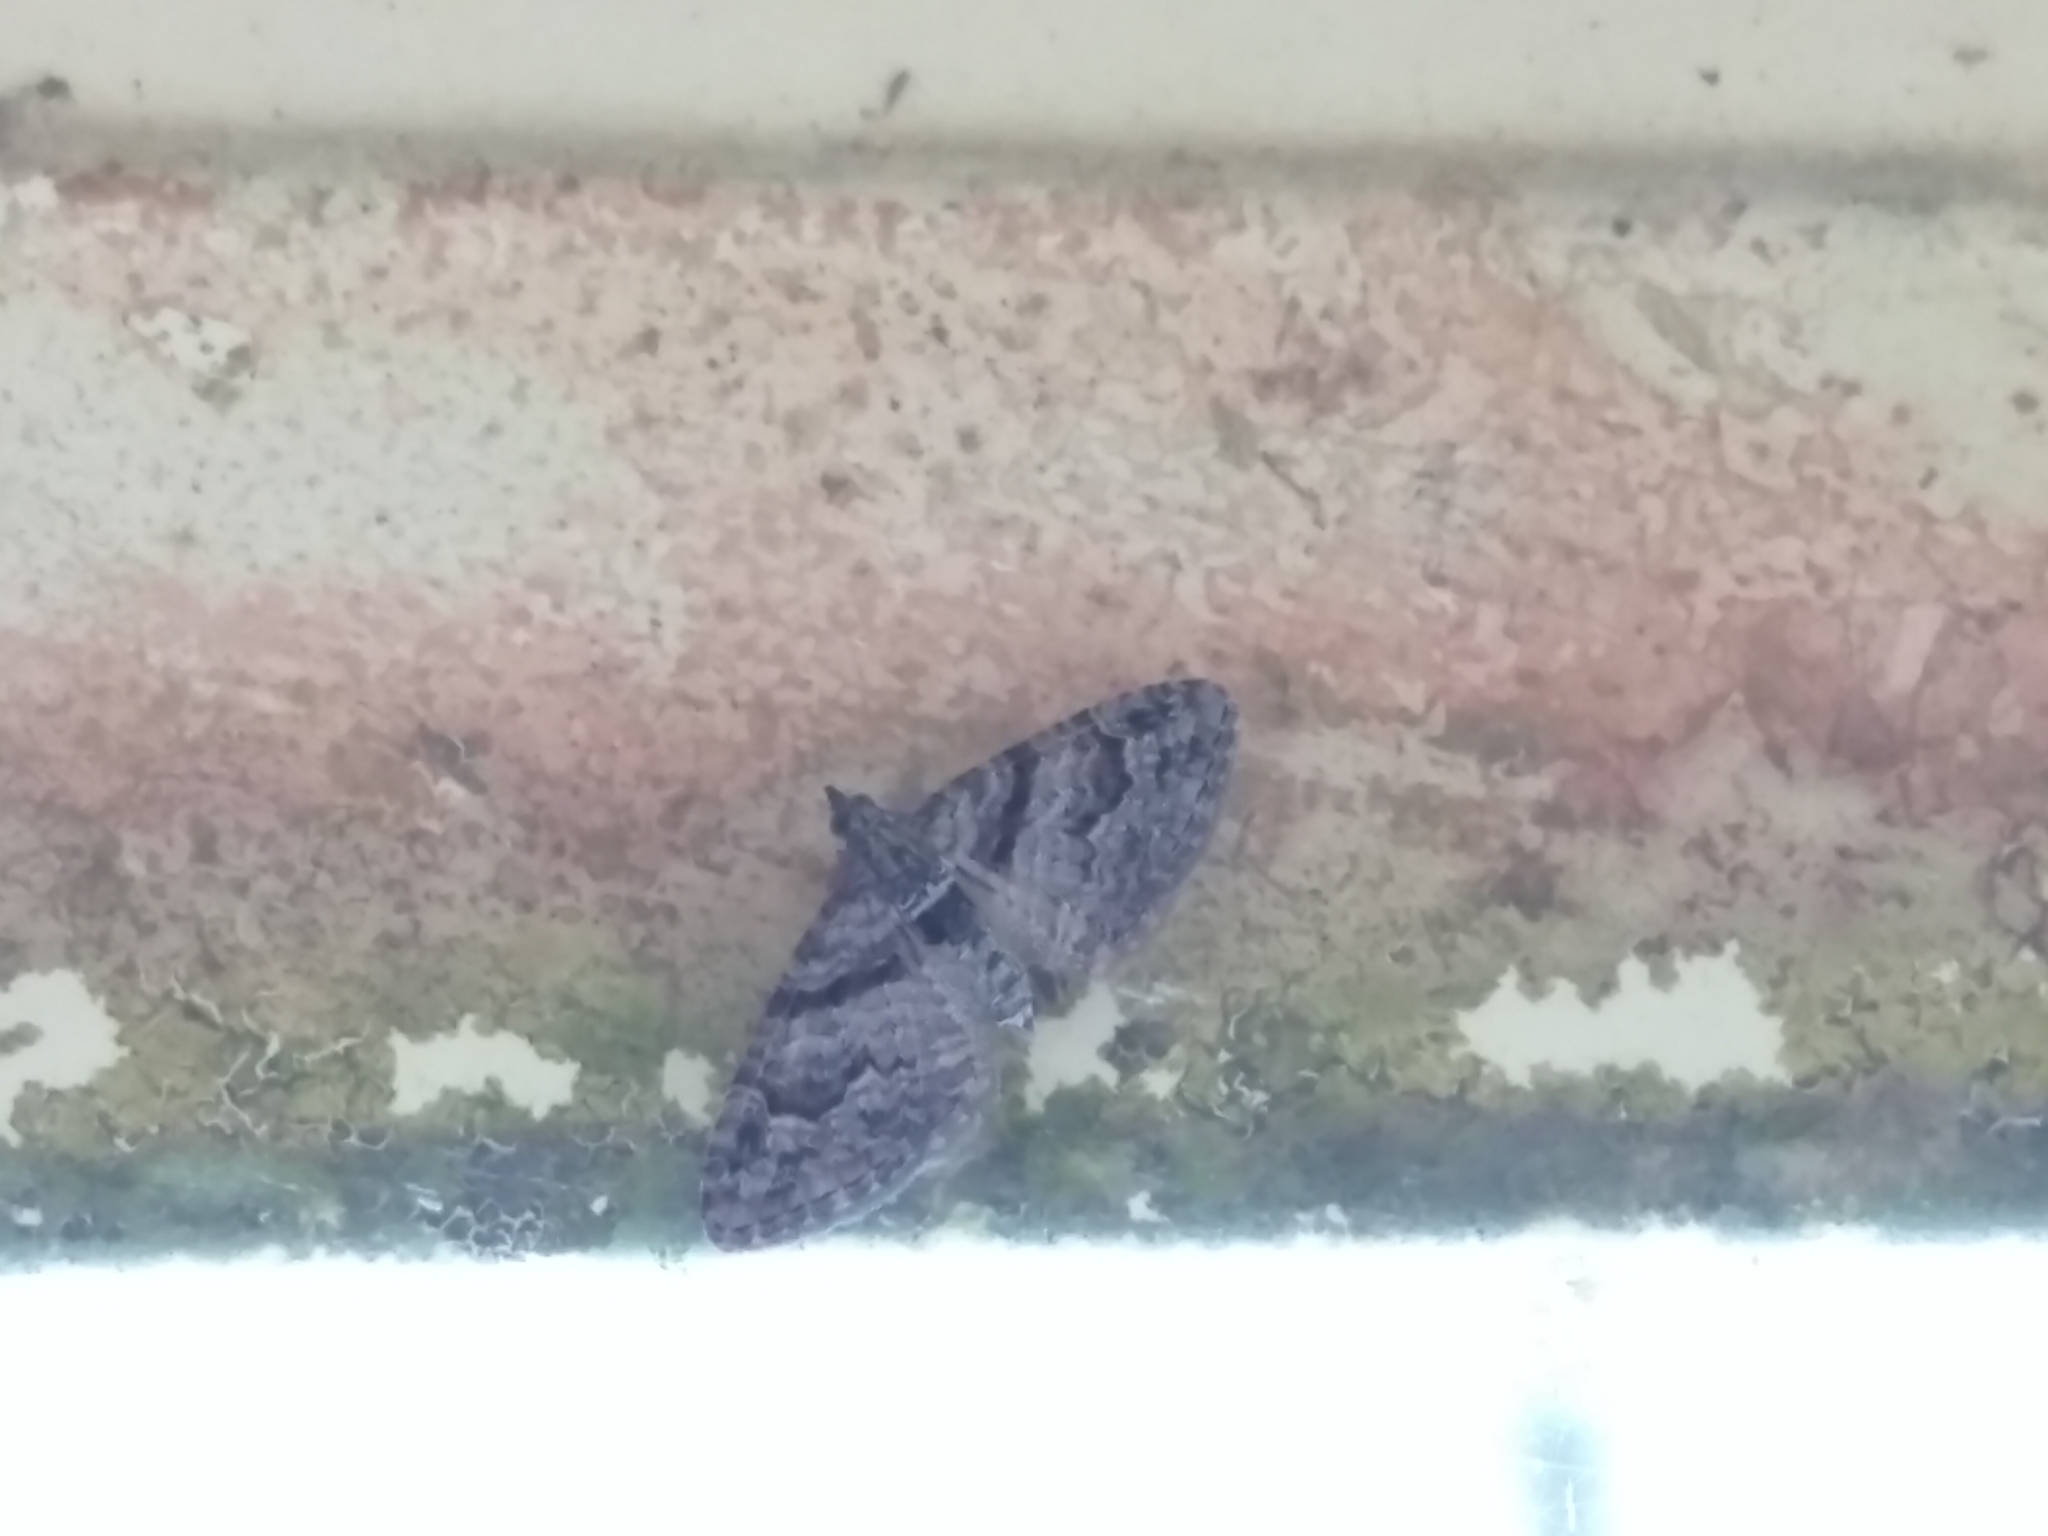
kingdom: Animalia
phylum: Arthropoda
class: Insecta
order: Lepidoptera
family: Geometridae
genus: Phrissogonus
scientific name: Phrissogonus laticostata
